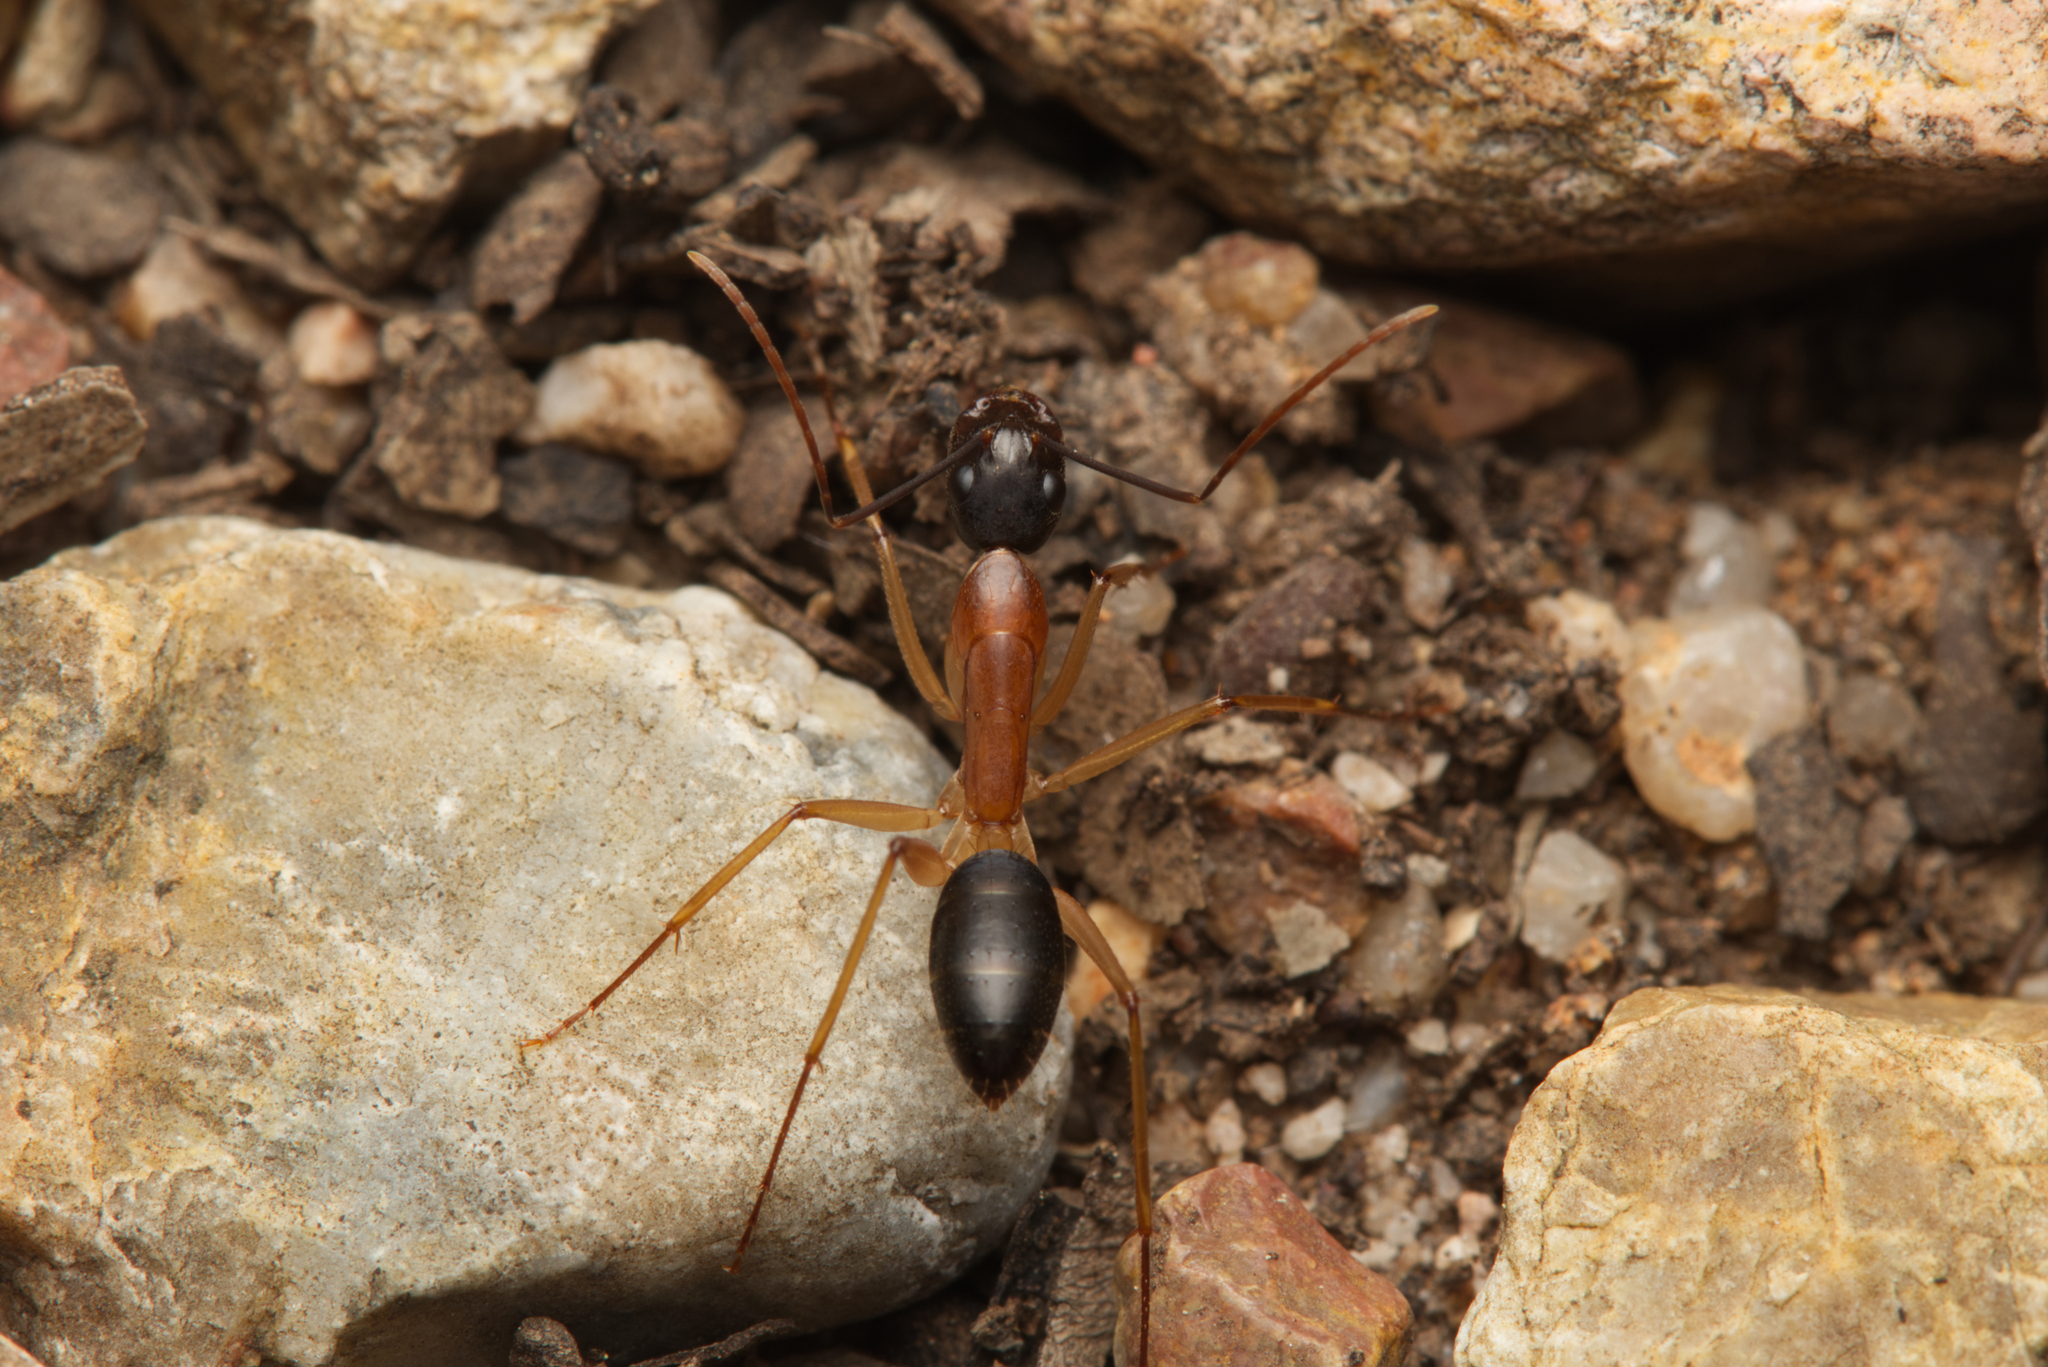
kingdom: Animalia
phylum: Arthropoda
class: Insecta
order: Hymenoptera
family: Formicidae
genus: Camponotus
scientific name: Camponotus nigriceps
